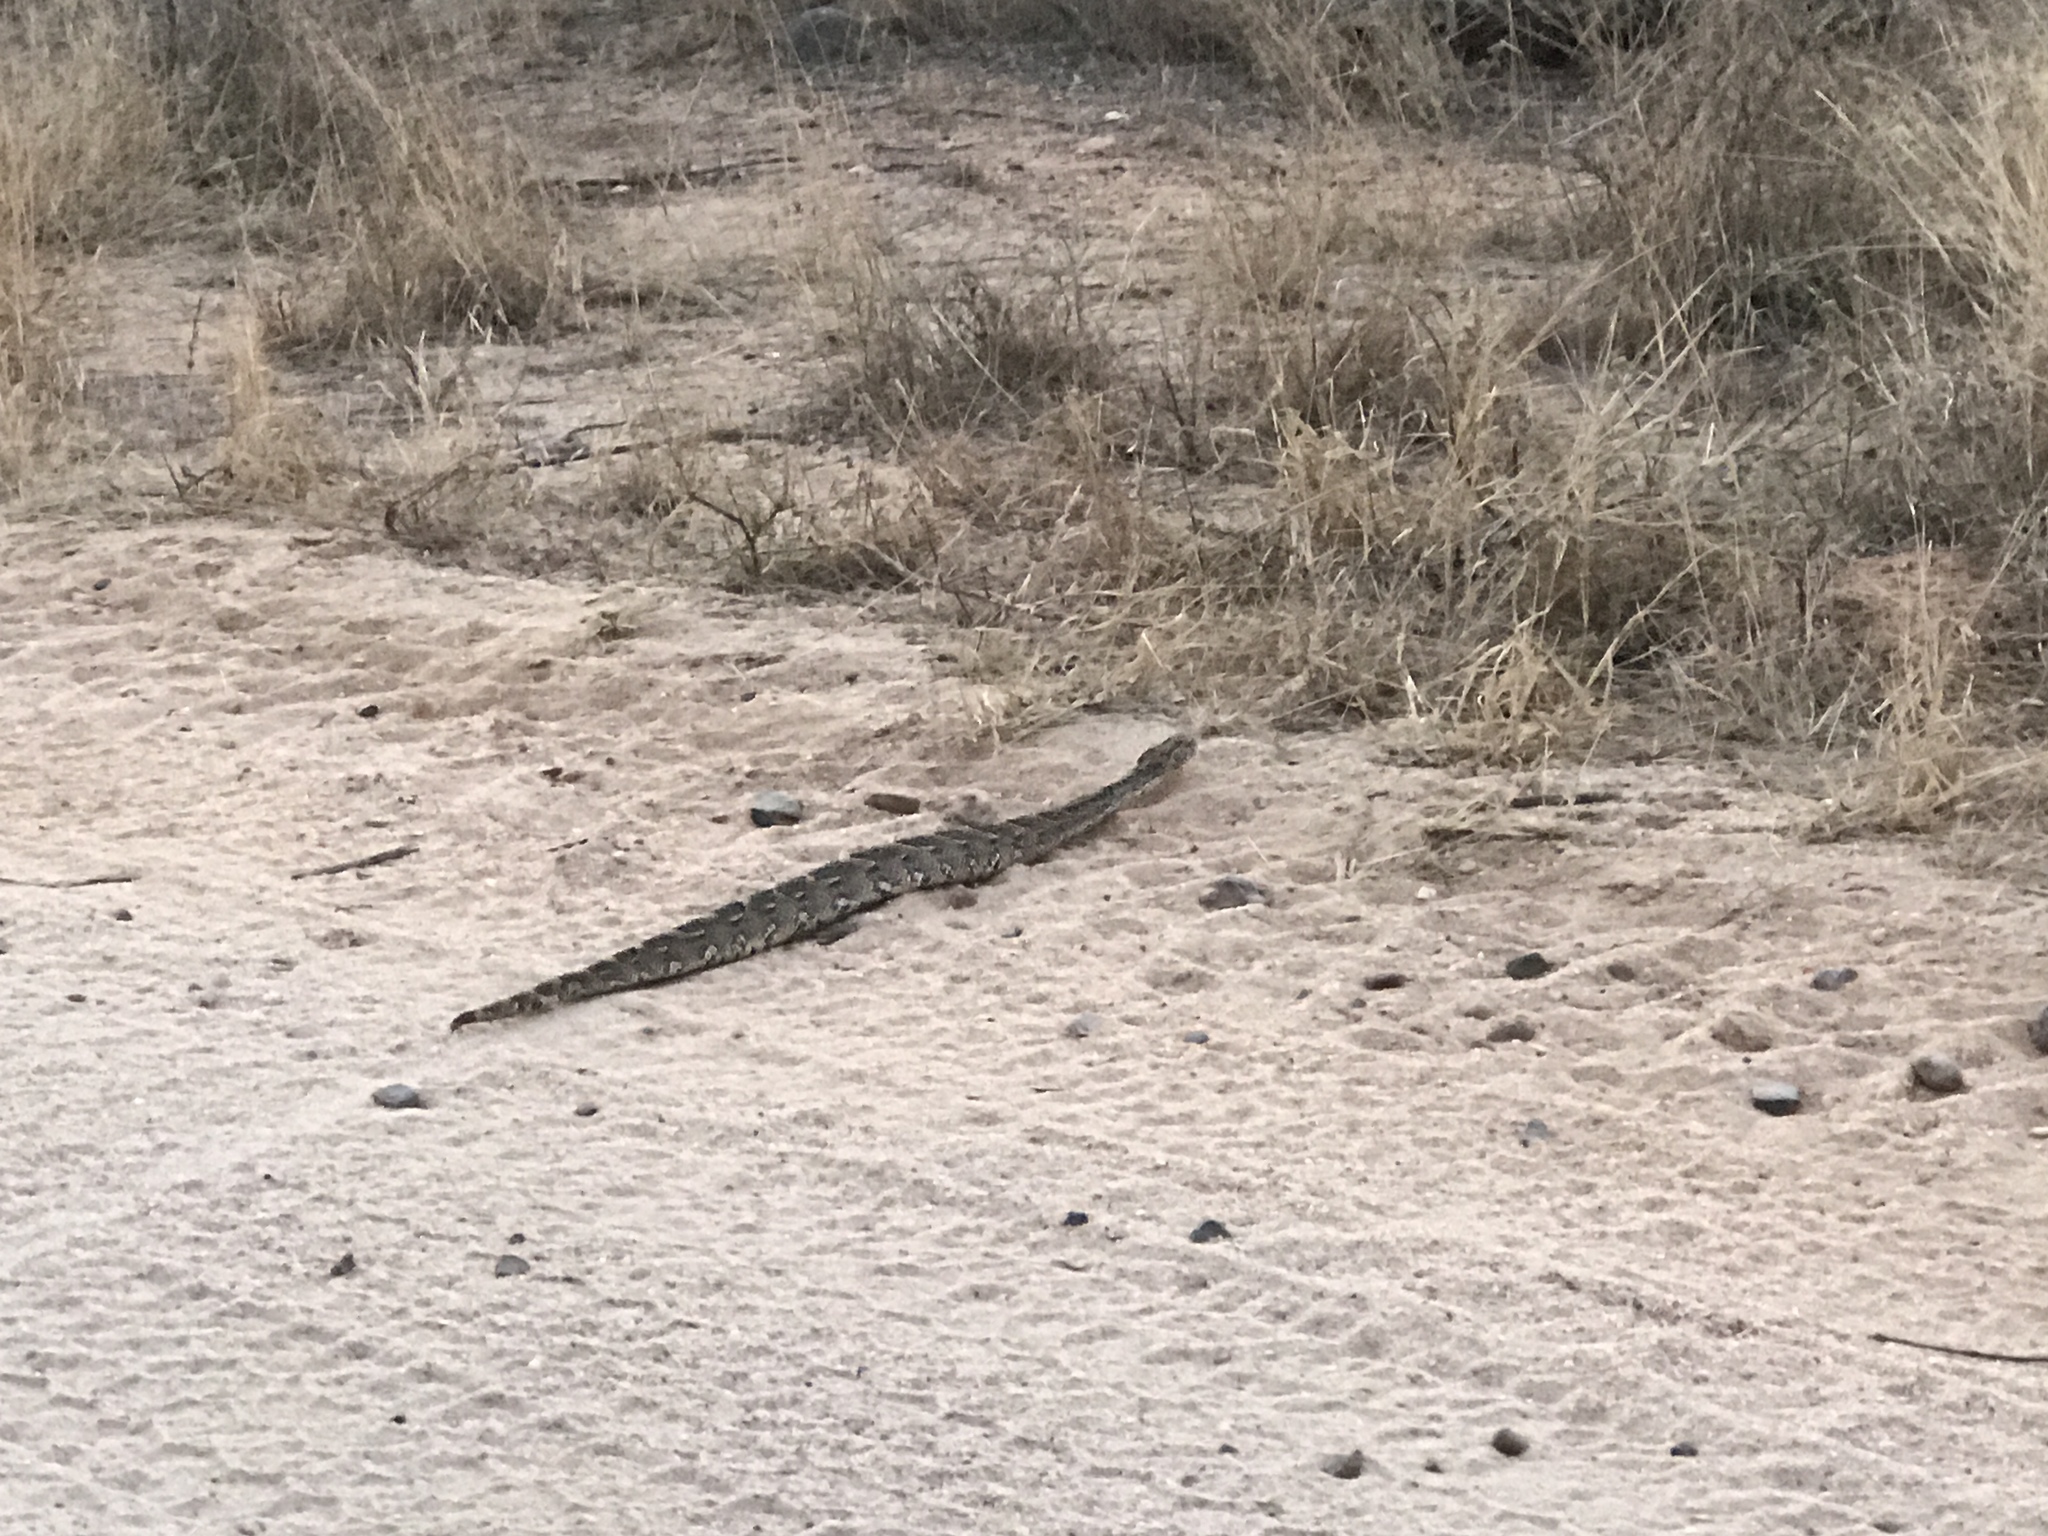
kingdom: Animalia
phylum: Chordata
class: Squamata
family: Viperidae
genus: Bitis
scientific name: Bitis arietans
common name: Puff adder
